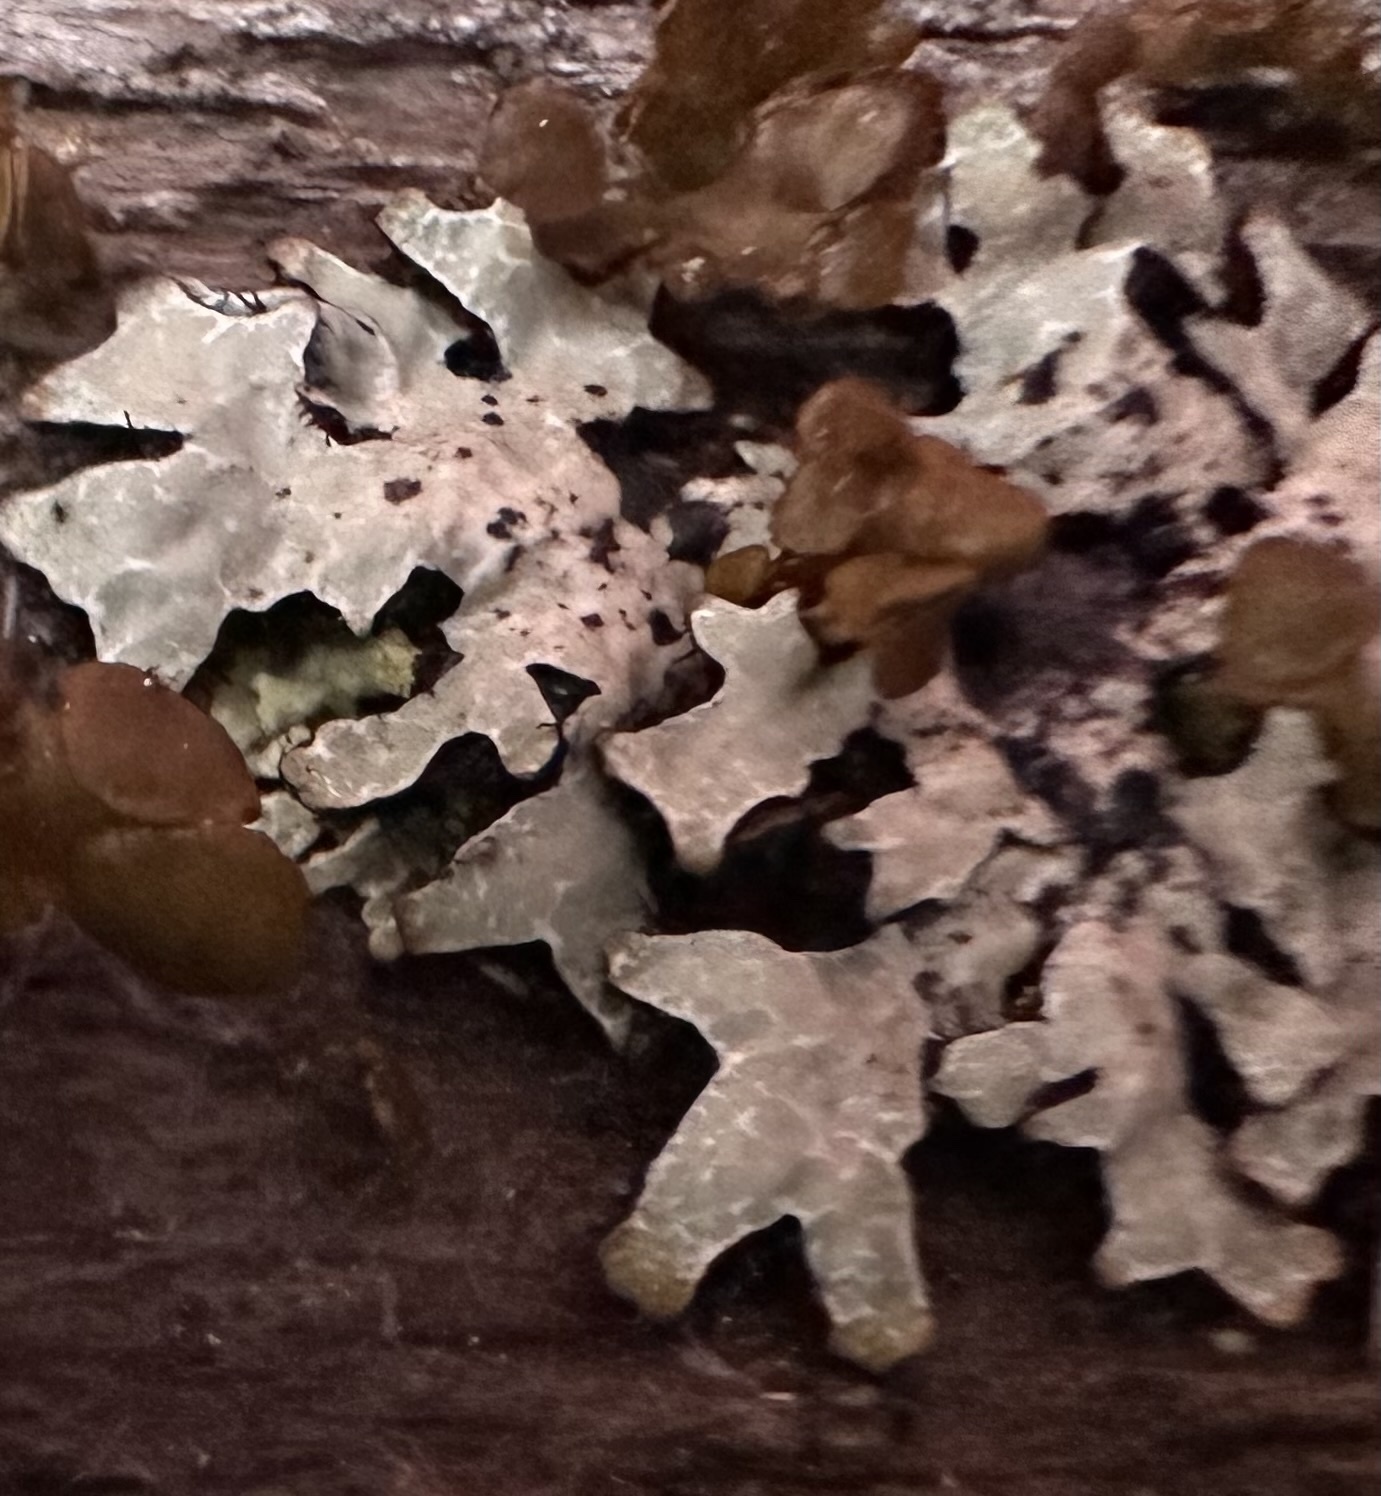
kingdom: Fungi
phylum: Ascomycota
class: Lecanoromycetes
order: Lecanorales
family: Parmeliaceae
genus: Parmelia
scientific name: Parmelia sulcata
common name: Netted shield lichen
